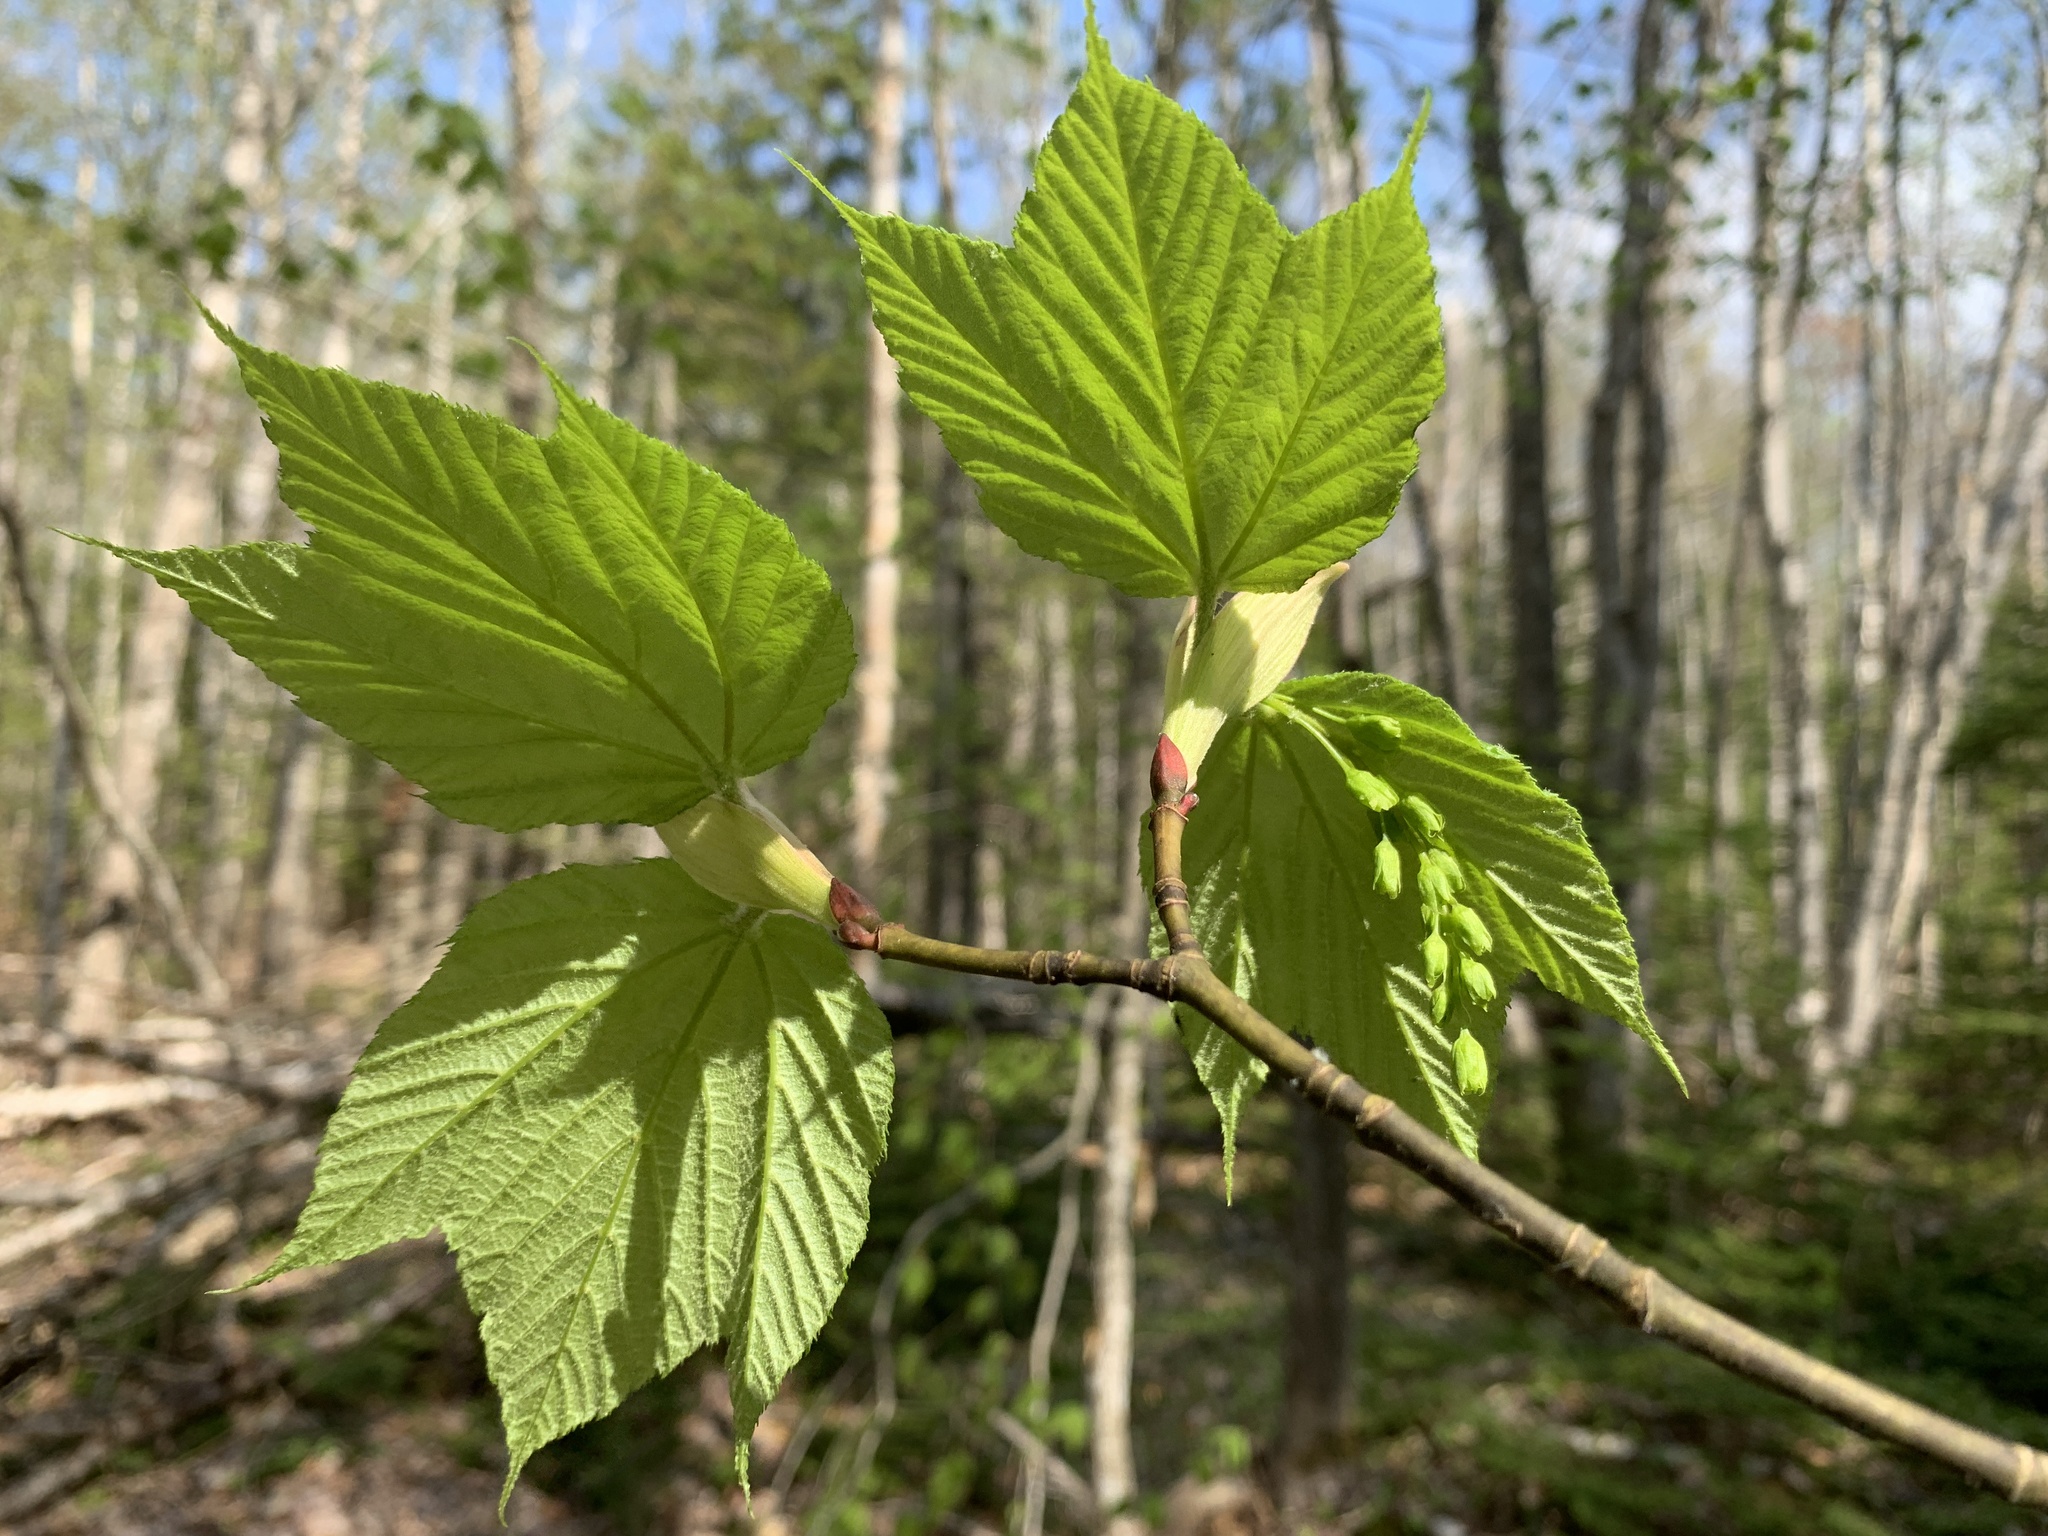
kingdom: Plantae
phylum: Tracheophyta
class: Magnoliopsida
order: Sapindales
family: Sapindaceae
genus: Acer
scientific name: Acer pensylvanicum
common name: Moosewood
